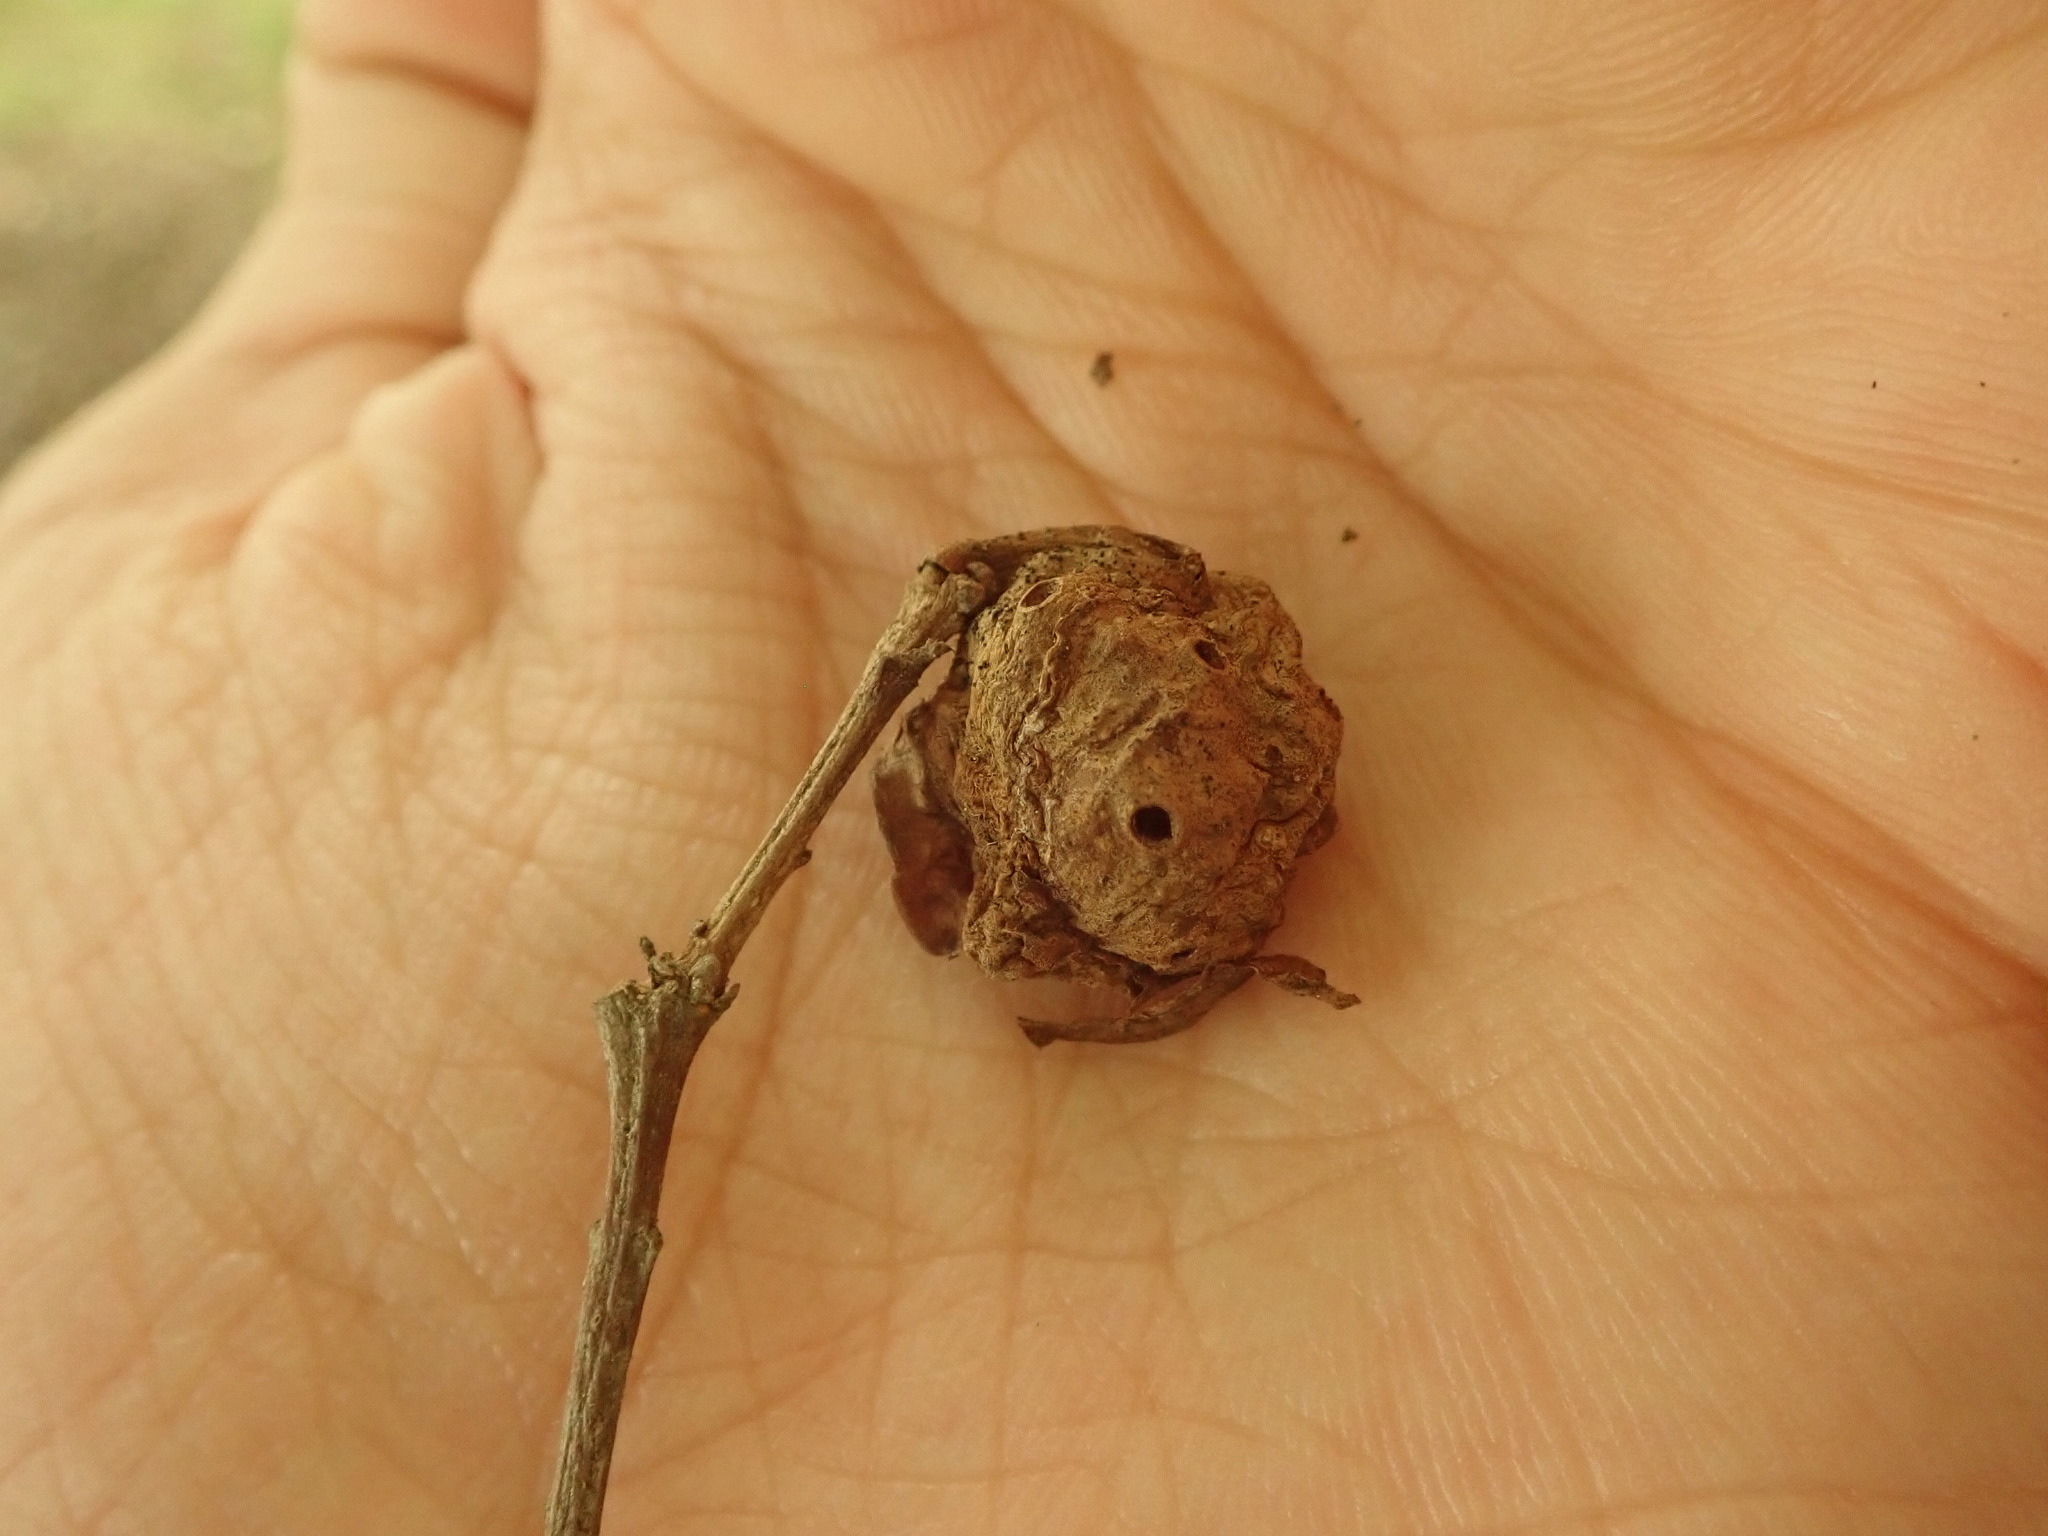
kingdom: Animalia
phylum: Arthropoda
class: Insecta
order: Hymenoptera
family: Cynipidae
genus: Andricus
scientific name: Andricus
